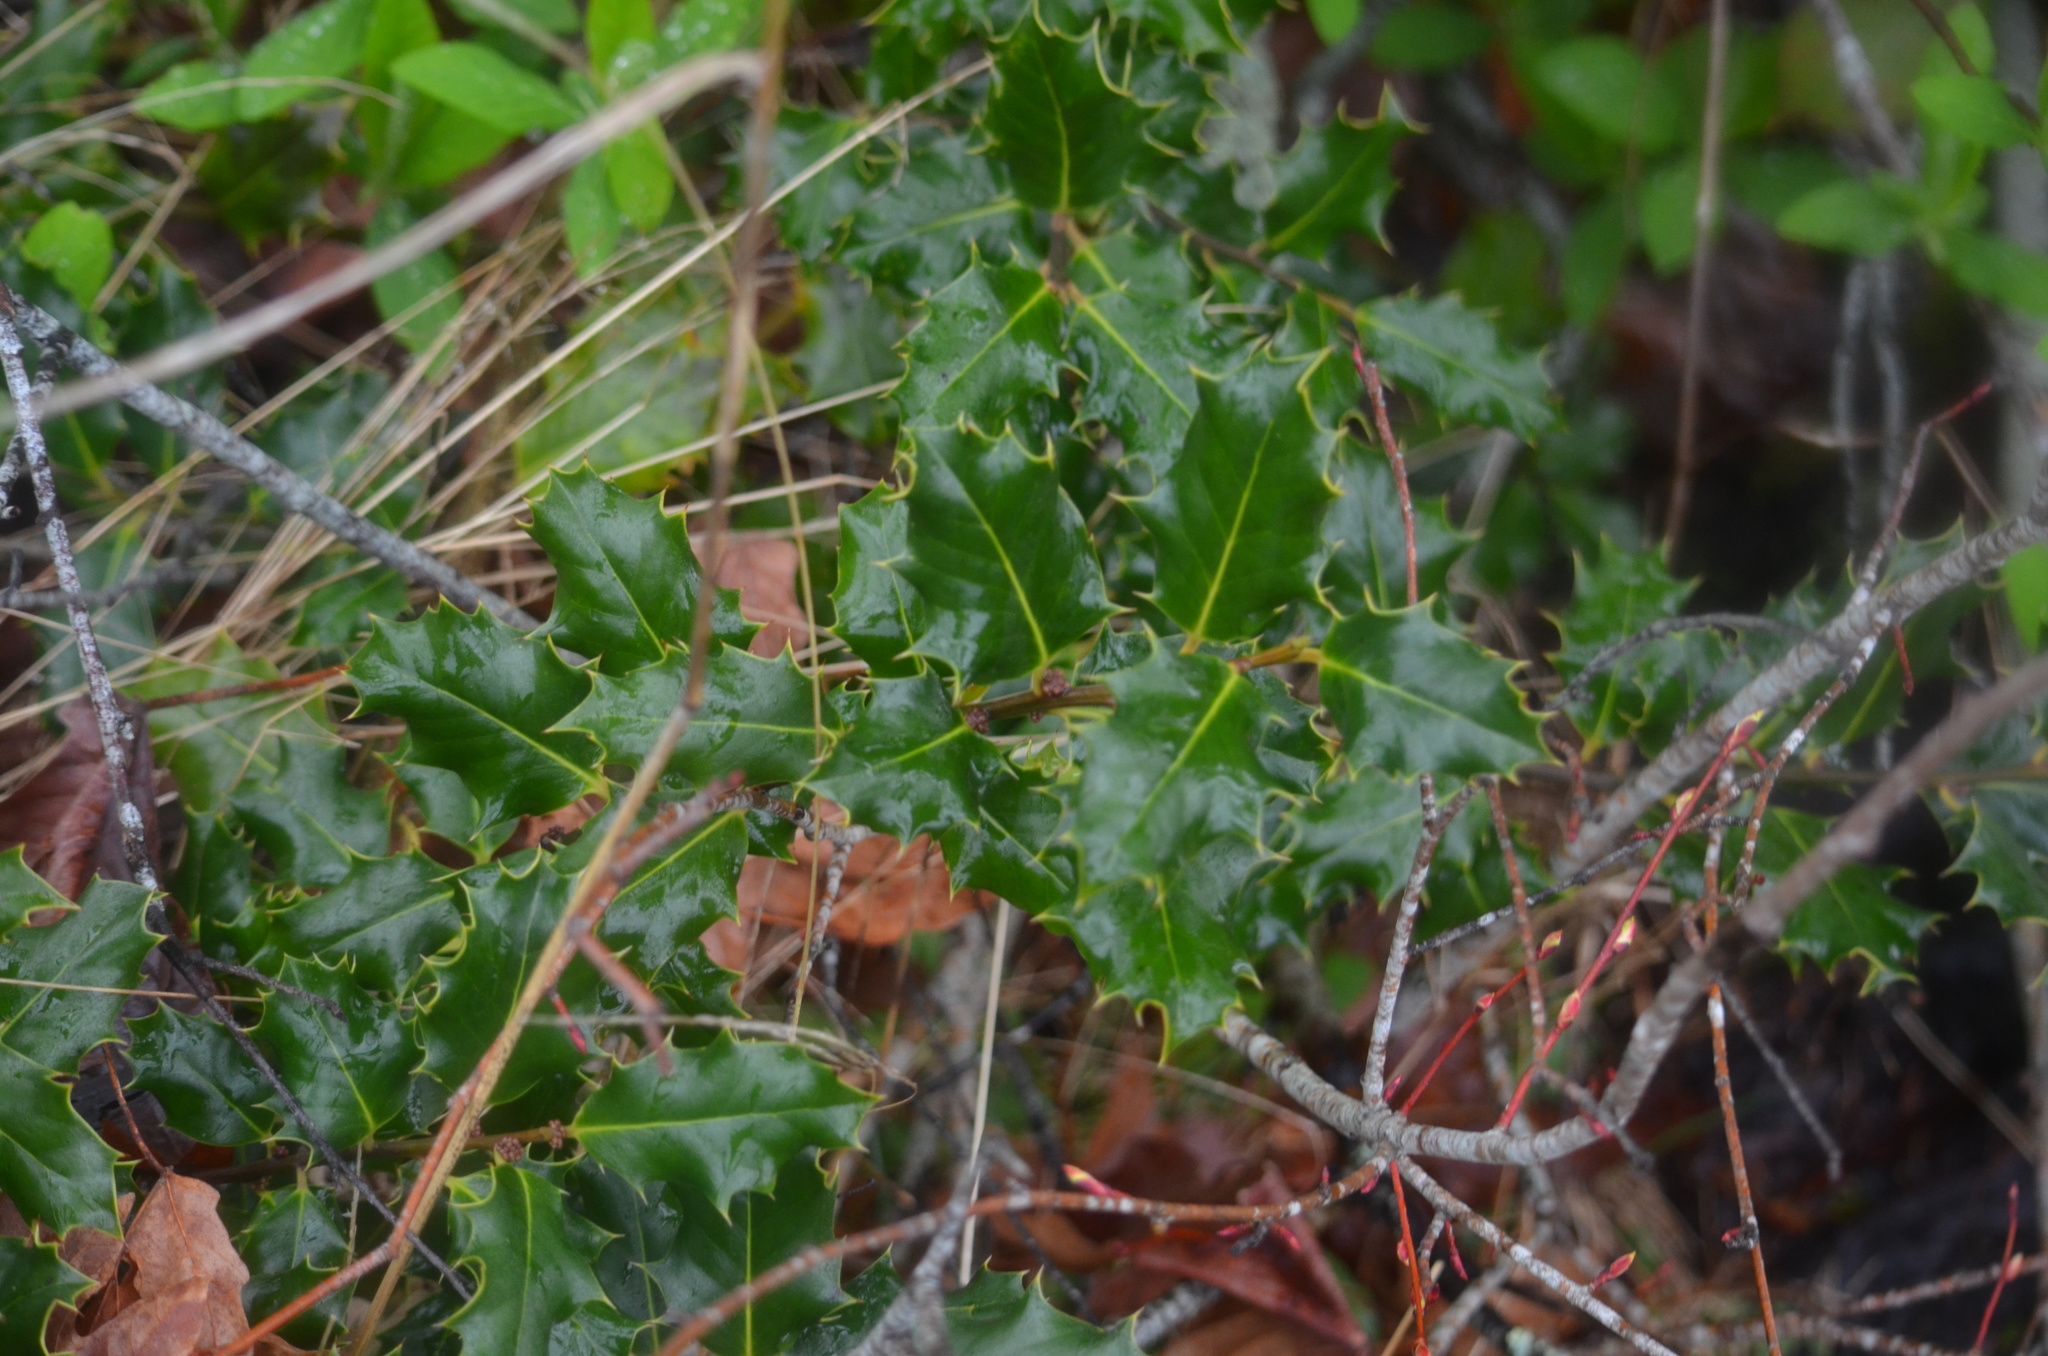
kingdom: Plantae
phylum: Tracheophyta
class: Magnoliopsida
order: Aquifoliales
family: Aquifoliaceae
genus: Ilex
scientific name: Ilex aquifolium
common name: English holly
